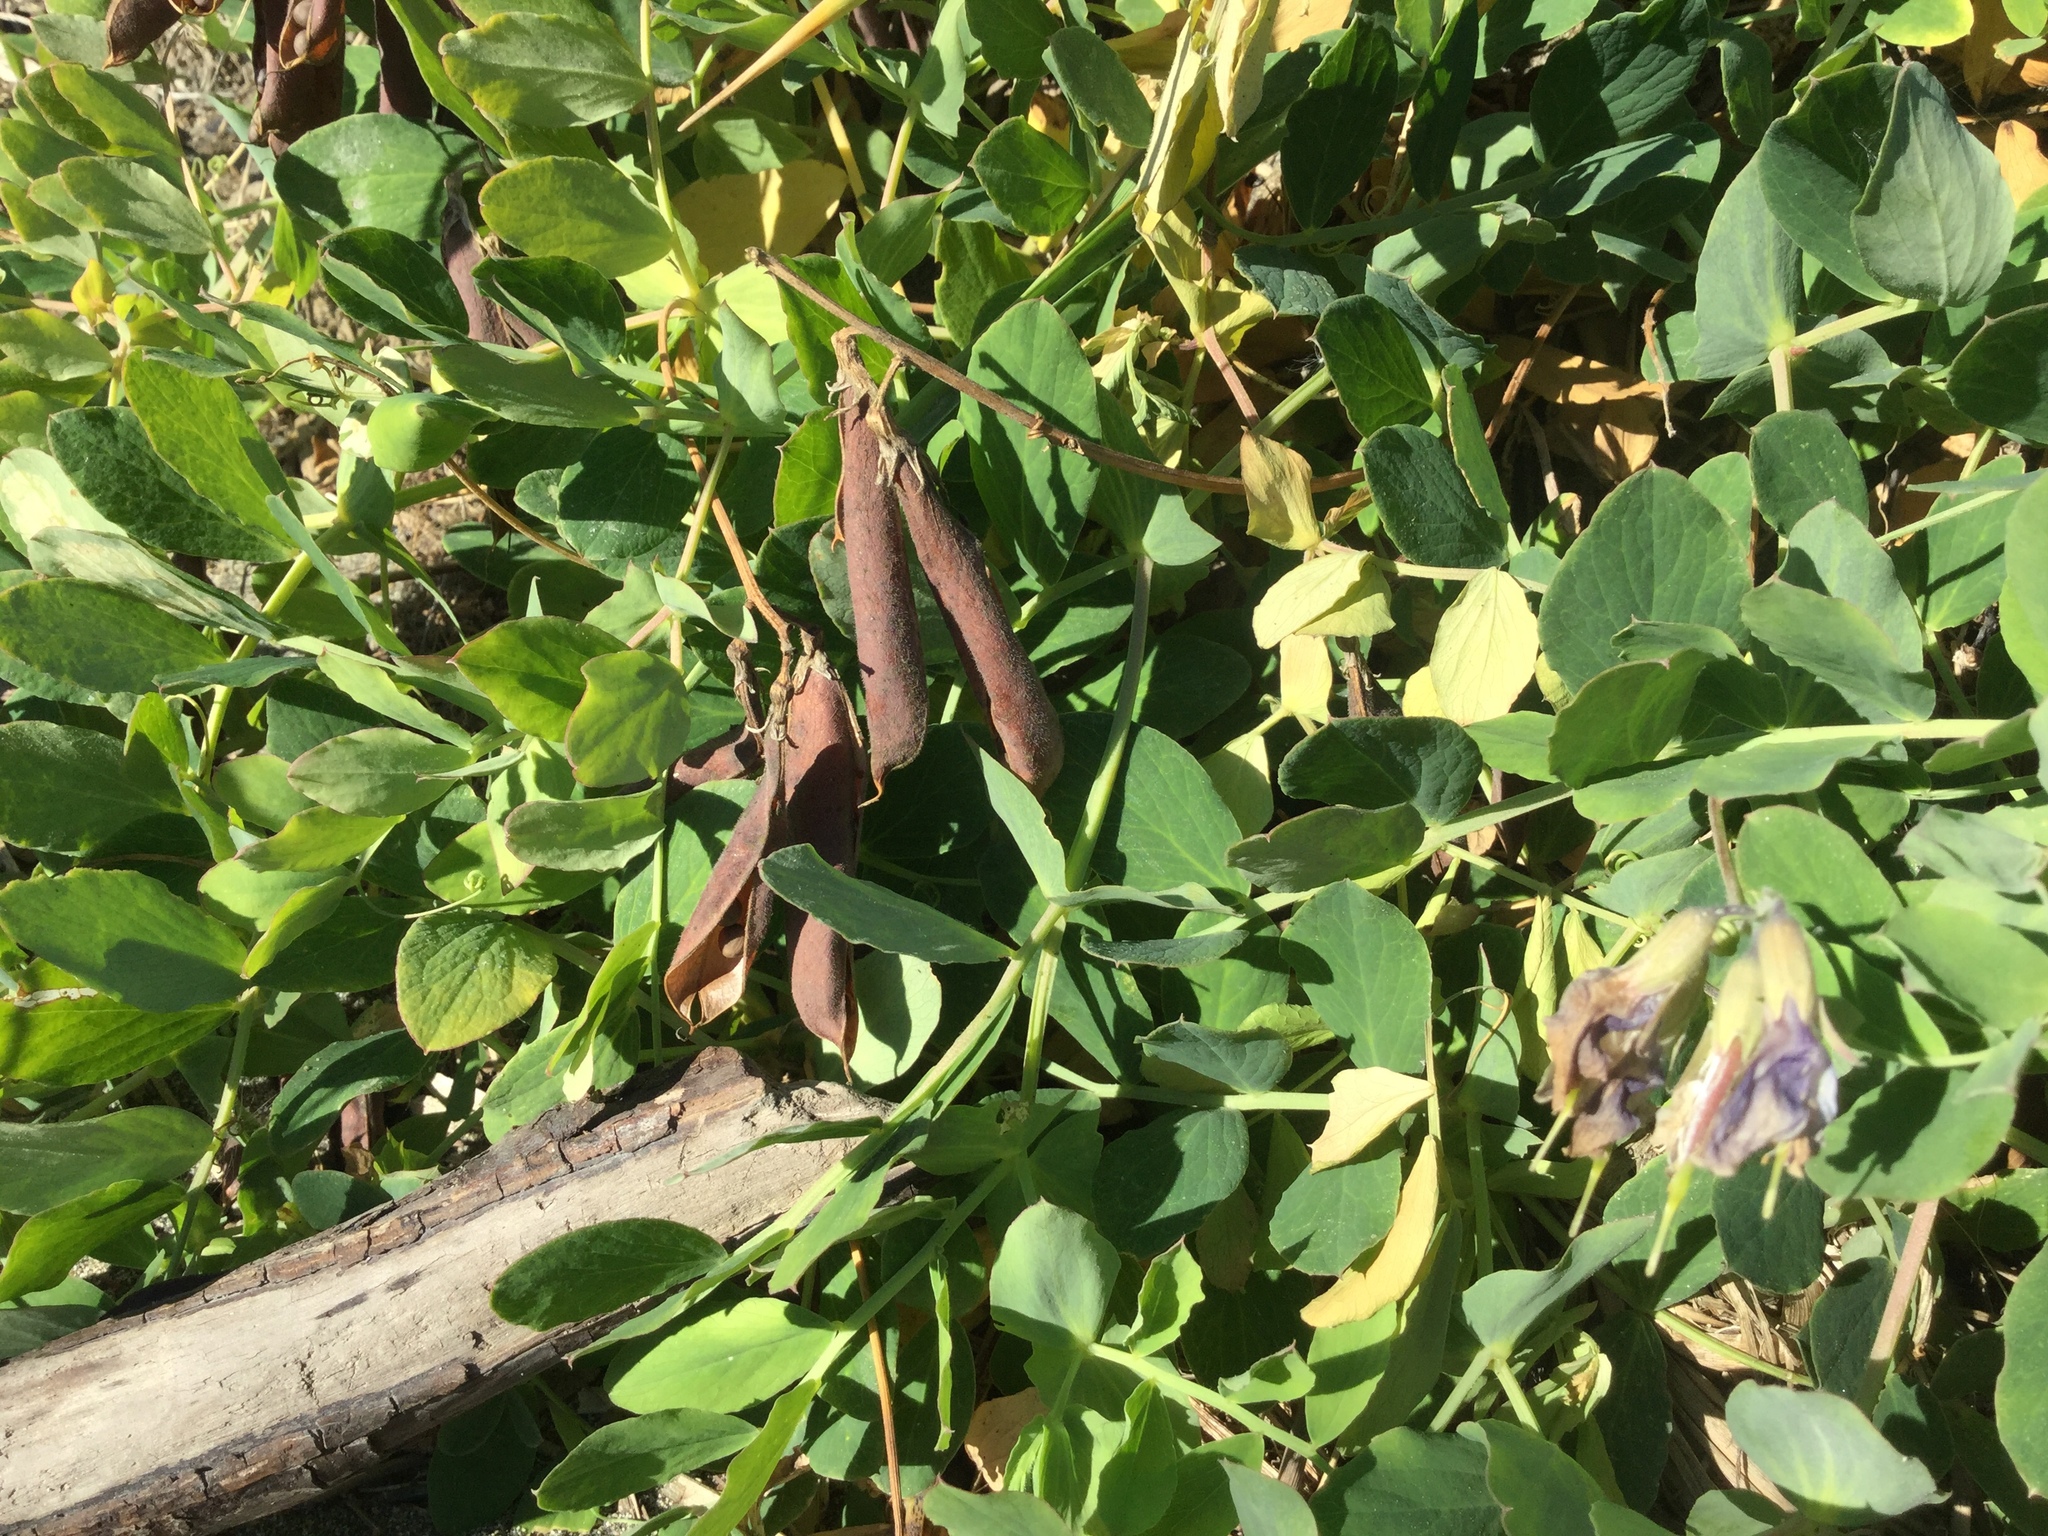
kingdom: Plantae
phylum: Tracheophyta
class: Magnoliopsida
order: Fabales
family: Fabaceae
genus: Lathyrus
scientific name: Lathyrus japonicus
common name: Sea pea
